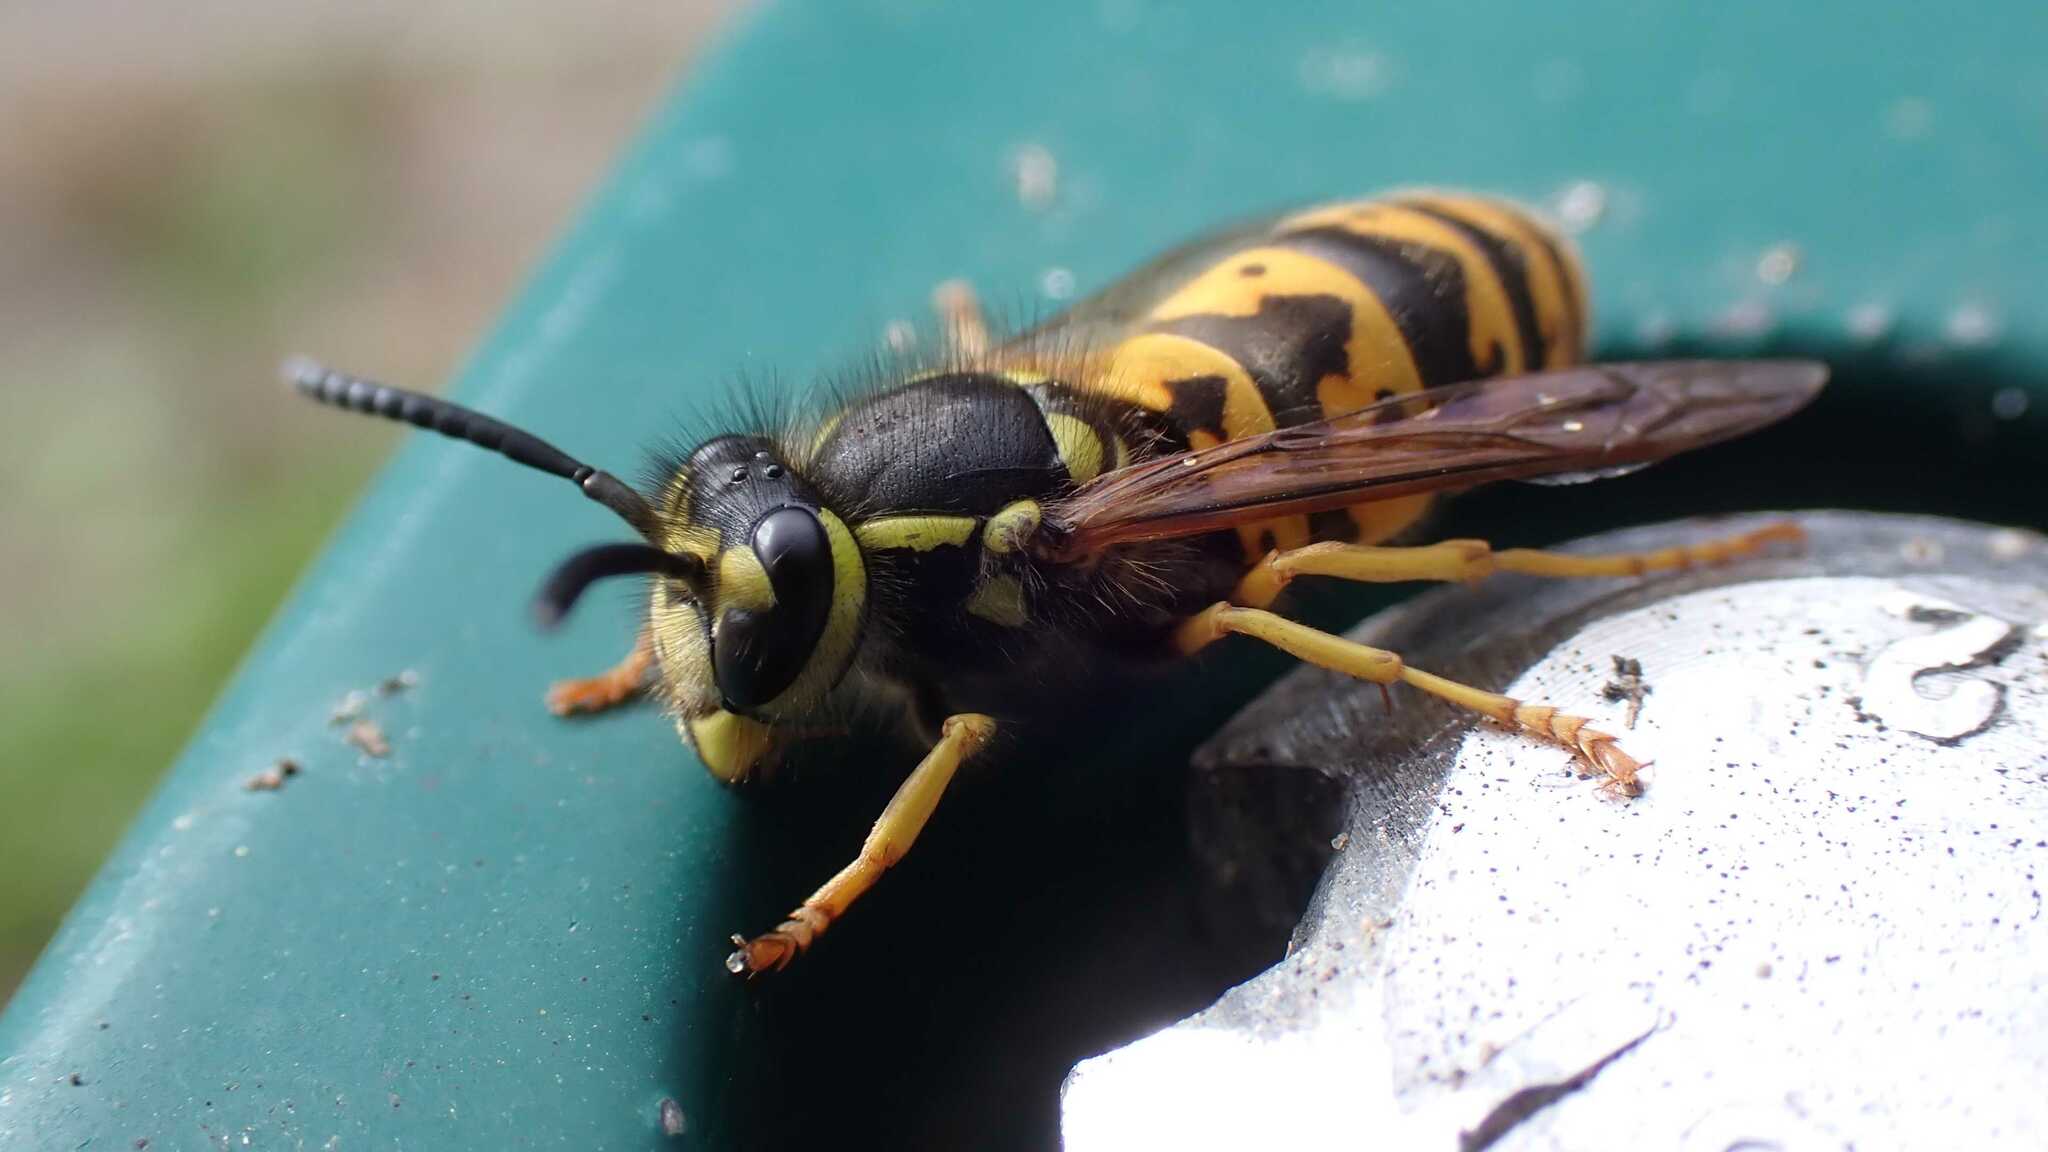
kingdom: Animalia
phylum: Arthropoda
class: Insecta
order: Hymenoptera
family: Vespidae
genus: Vespula
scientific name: Vespula germanica
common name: German wasp
